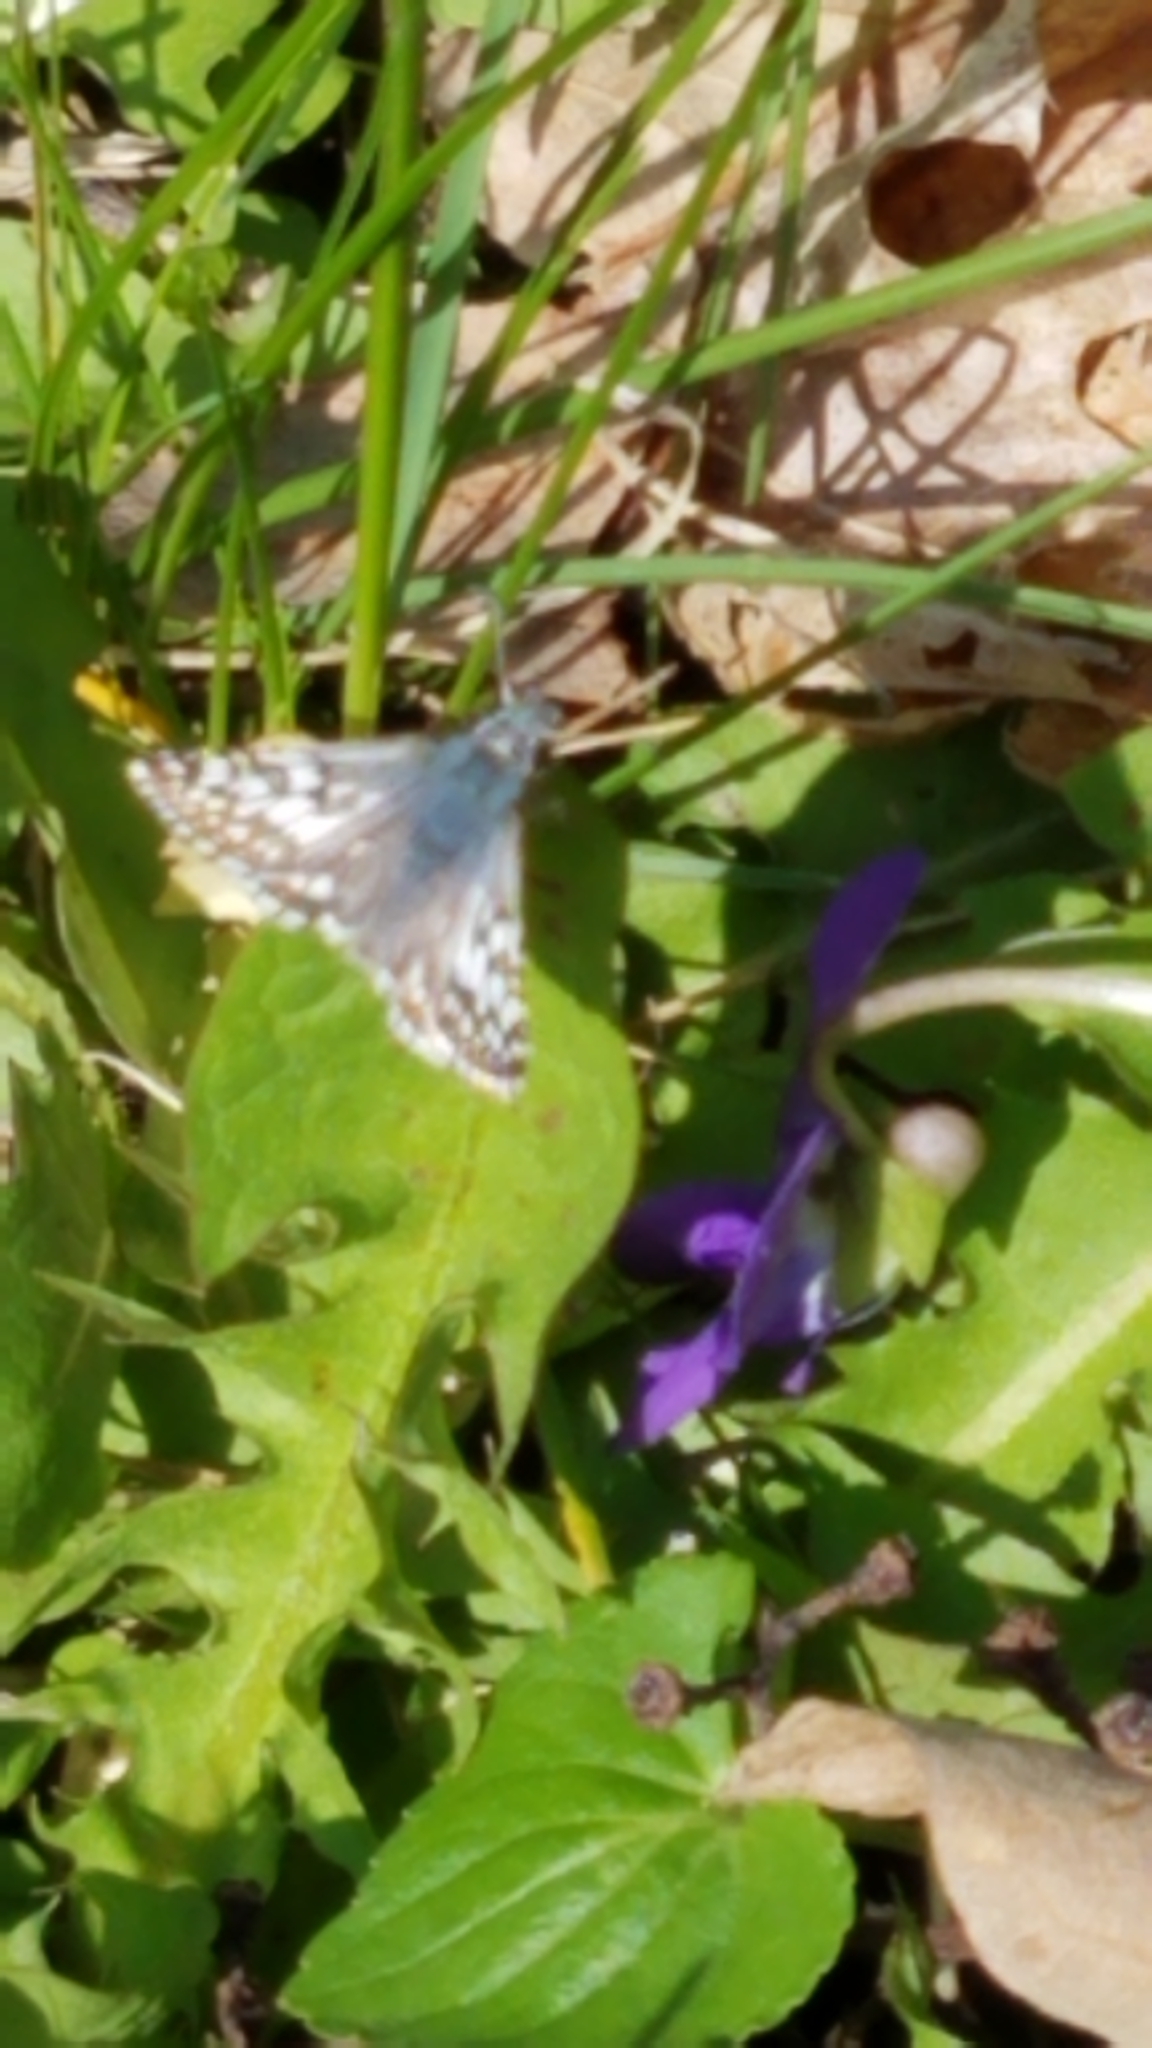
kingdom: Animalia
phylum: Arthropoda
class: Insecta
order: Lepidoptera
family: Hesperiidae
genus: Burnsius
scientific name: Burnsius communis
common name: Common checkered-skipper
